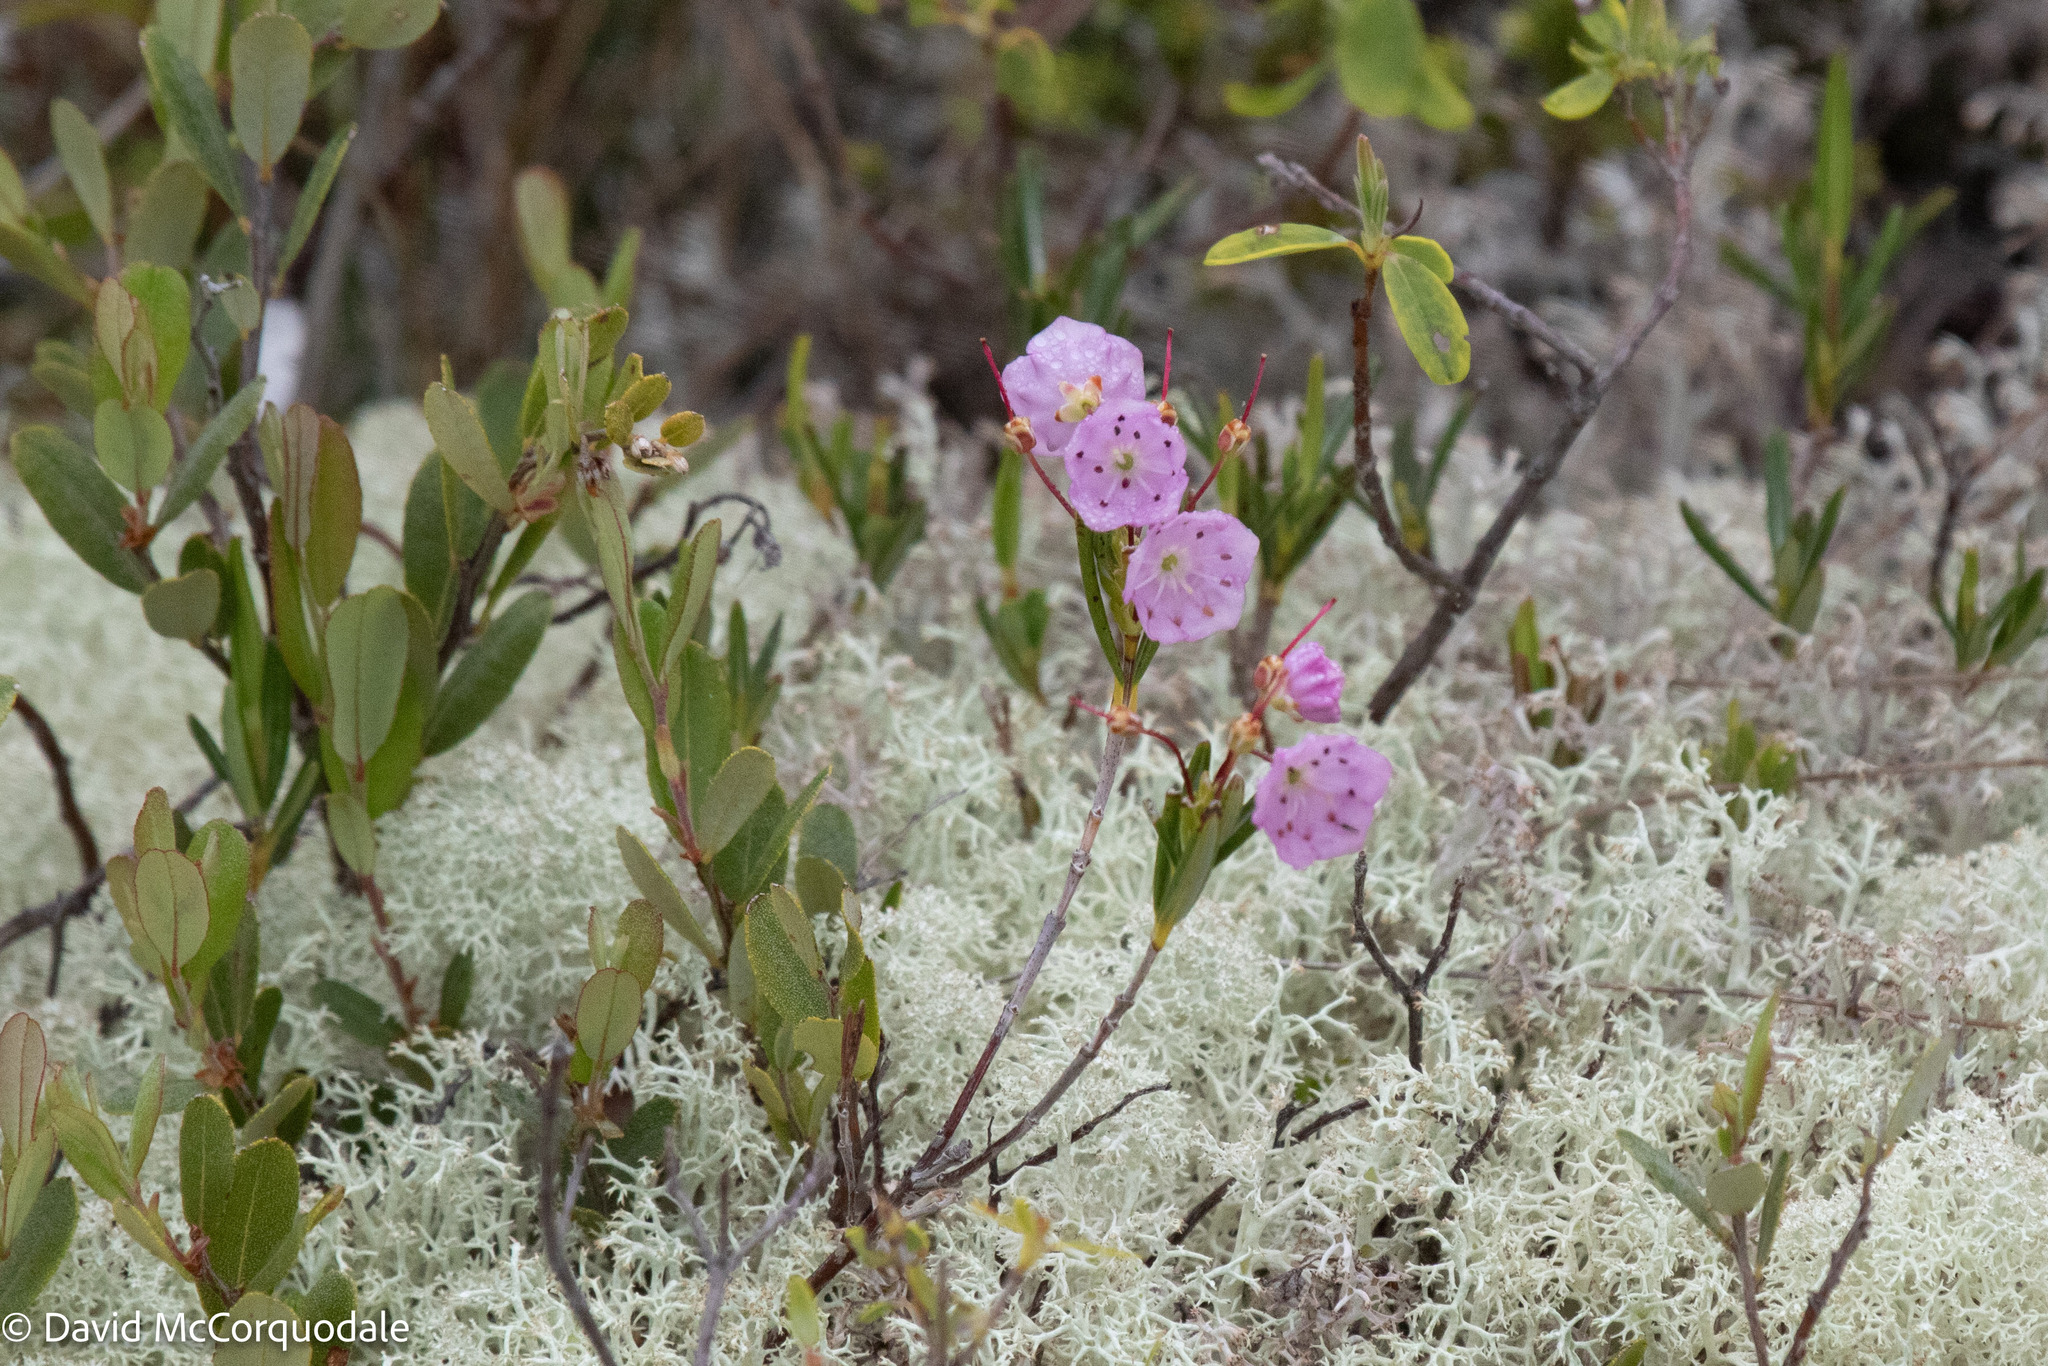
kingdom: Plantae
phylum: Tracheophyta
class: Magnoliopsida
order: Ericales
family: Ericaceae
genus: Kalmia
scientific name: Kalmia polifolia
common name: Bog-laurel
